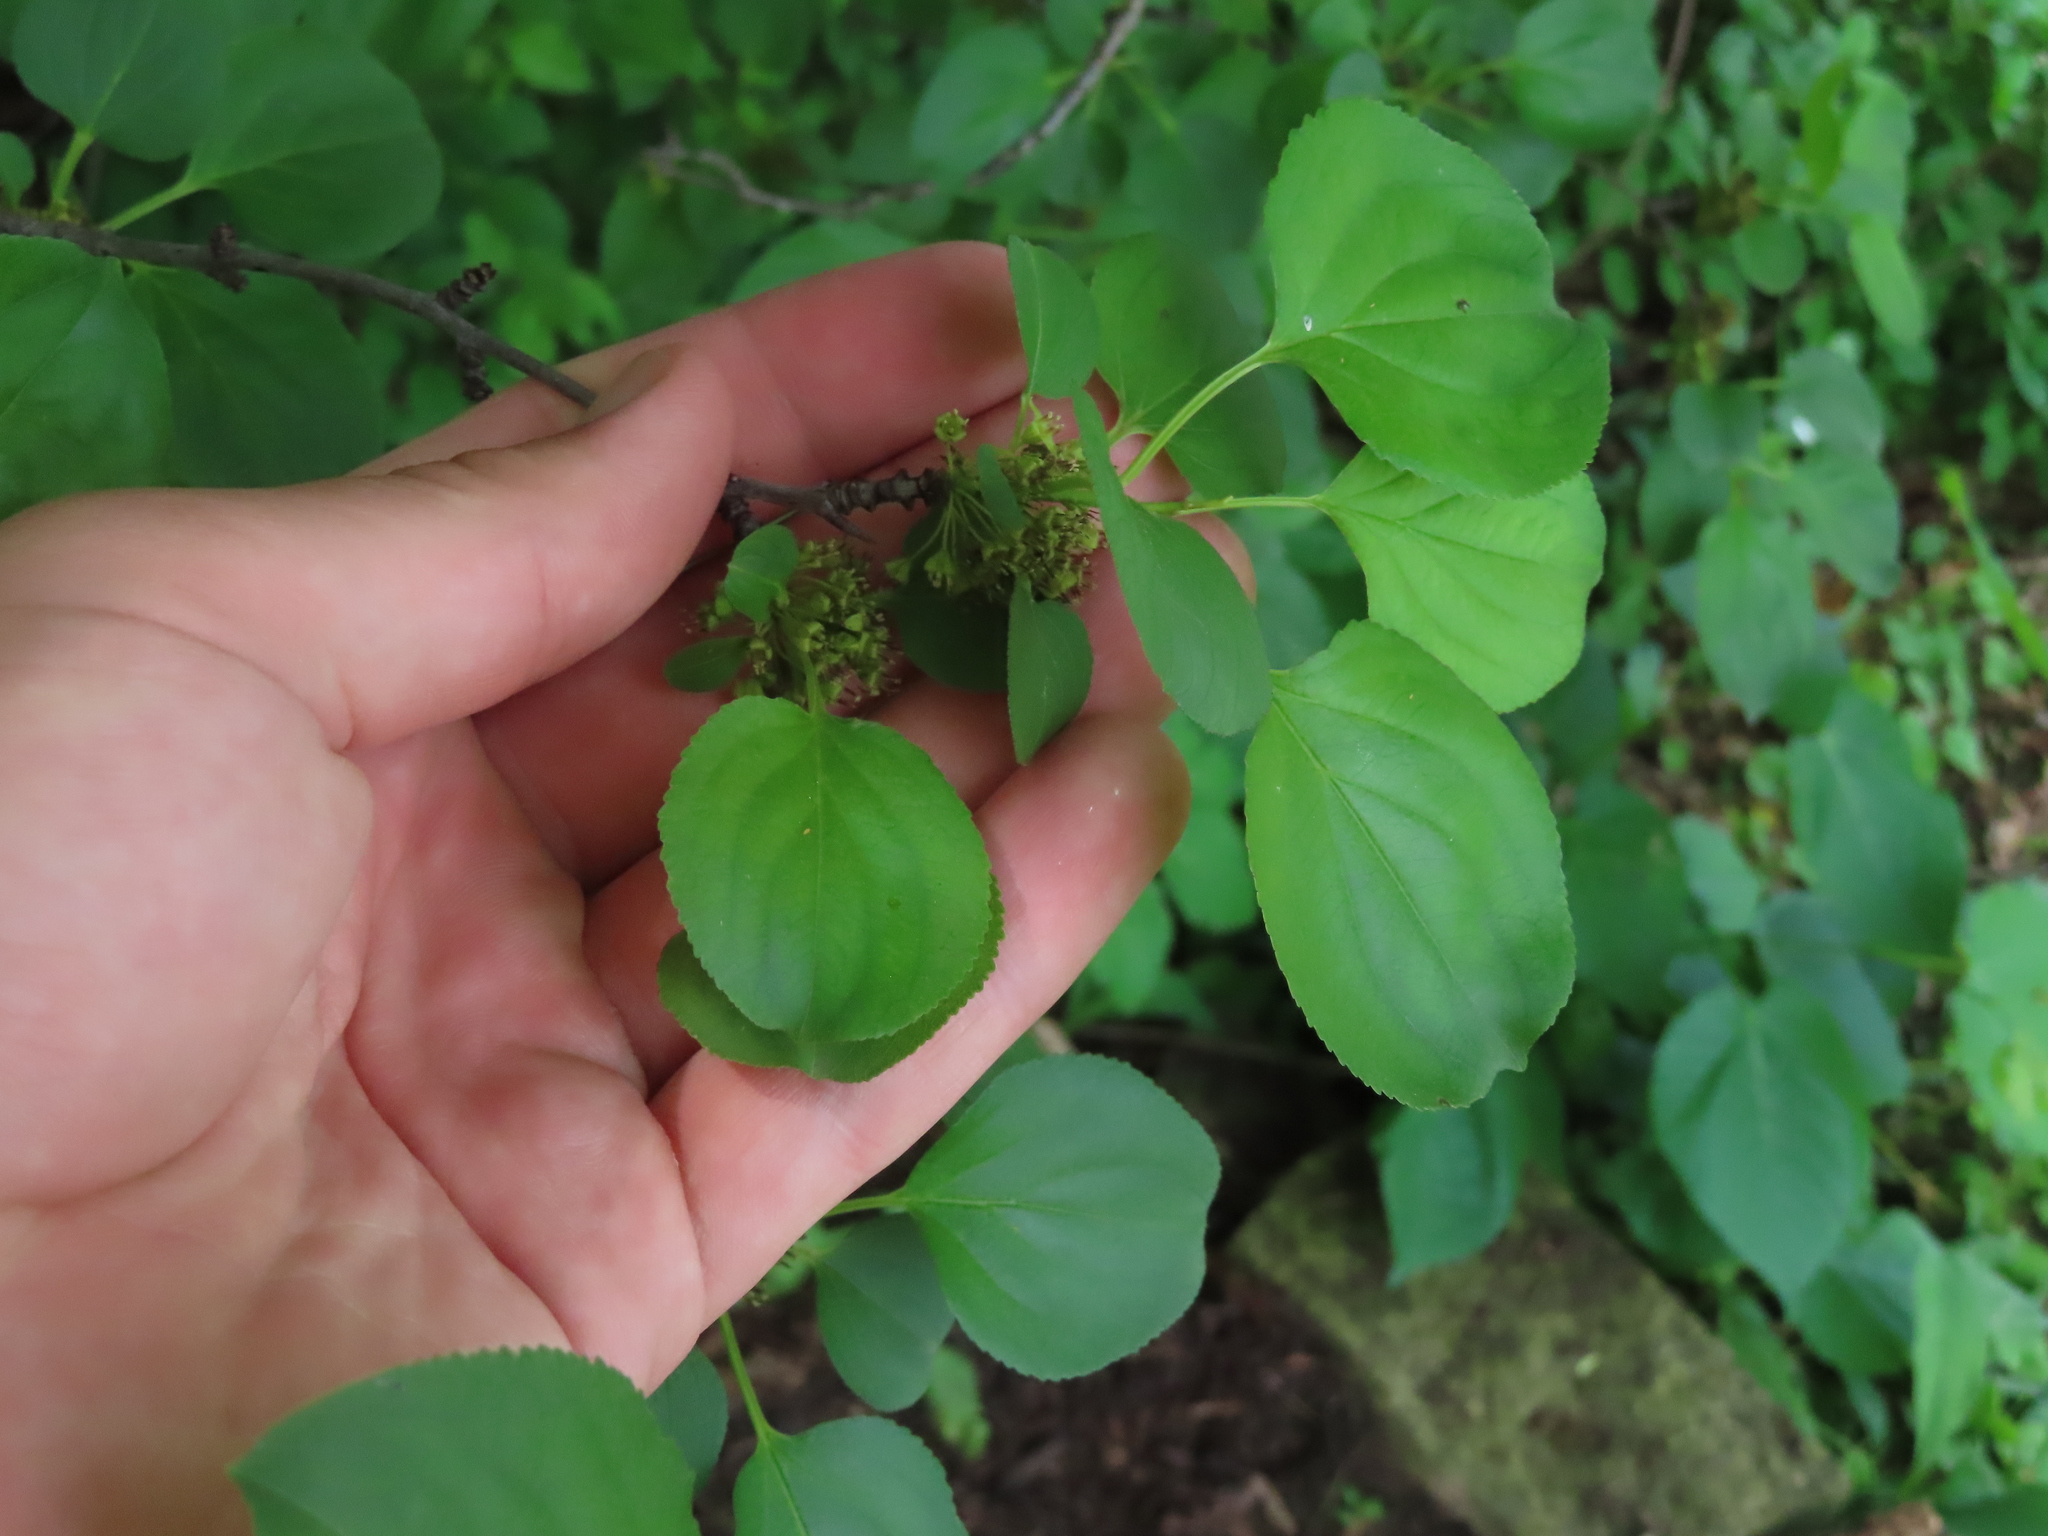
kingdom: Plantae
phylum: Tracheophyta
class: Magnoliopsida
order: Rosales
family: Rhamnaceae
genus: Rhamnus
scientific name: Rhamnus cathartica
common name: Common buckthorn
